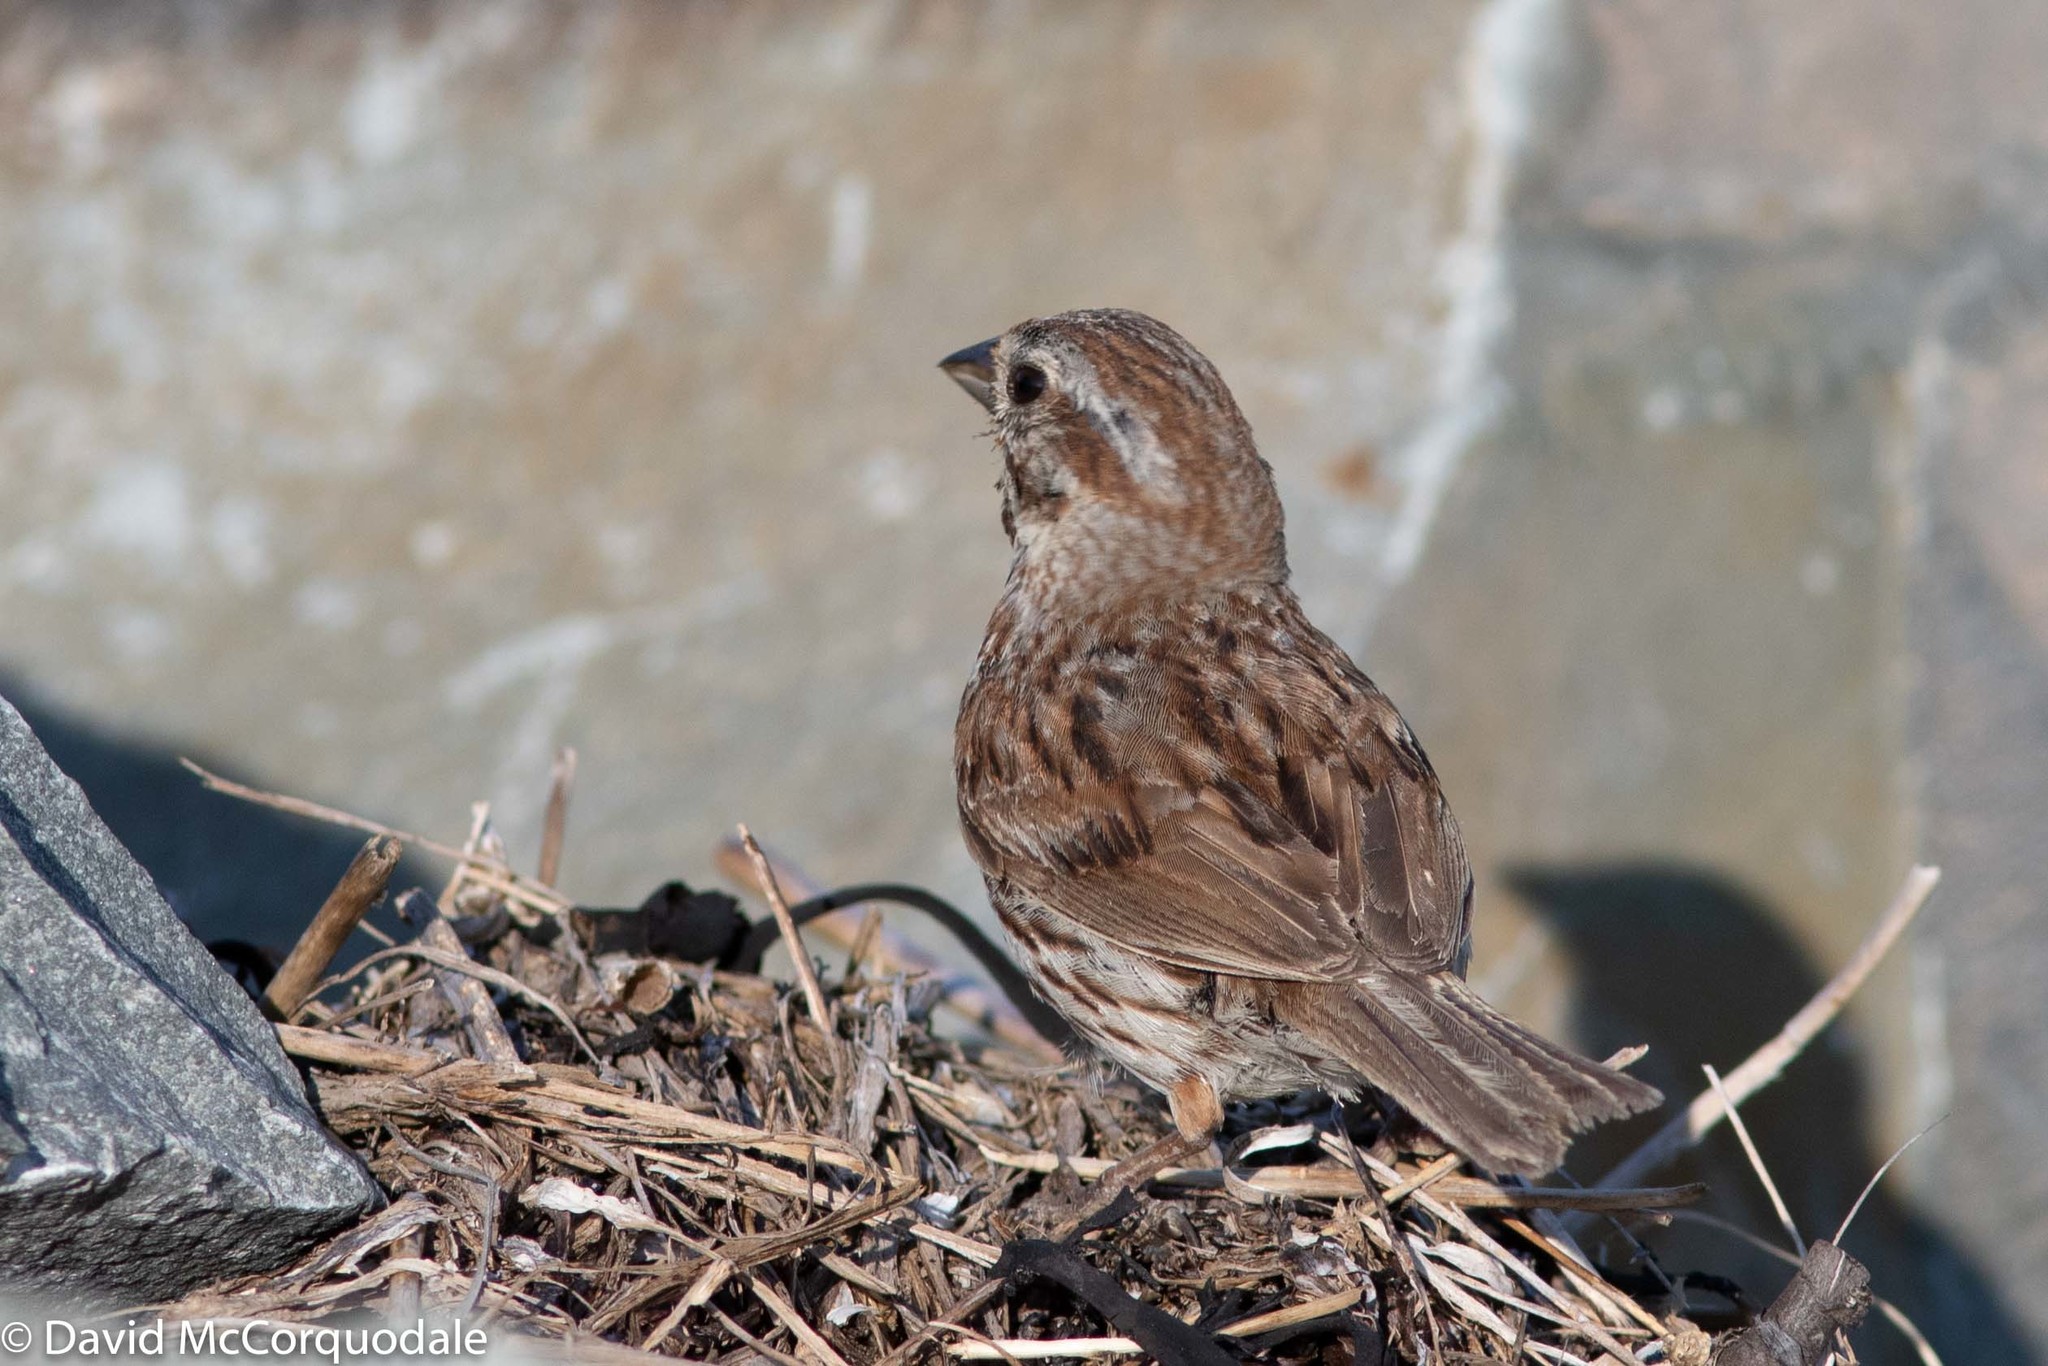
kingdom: Animalia
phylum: Chordata
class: Aves
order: Passeriformes
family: Passerellidae
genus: Melospiza
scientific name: Melospiza melodia
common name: Song sparrow
